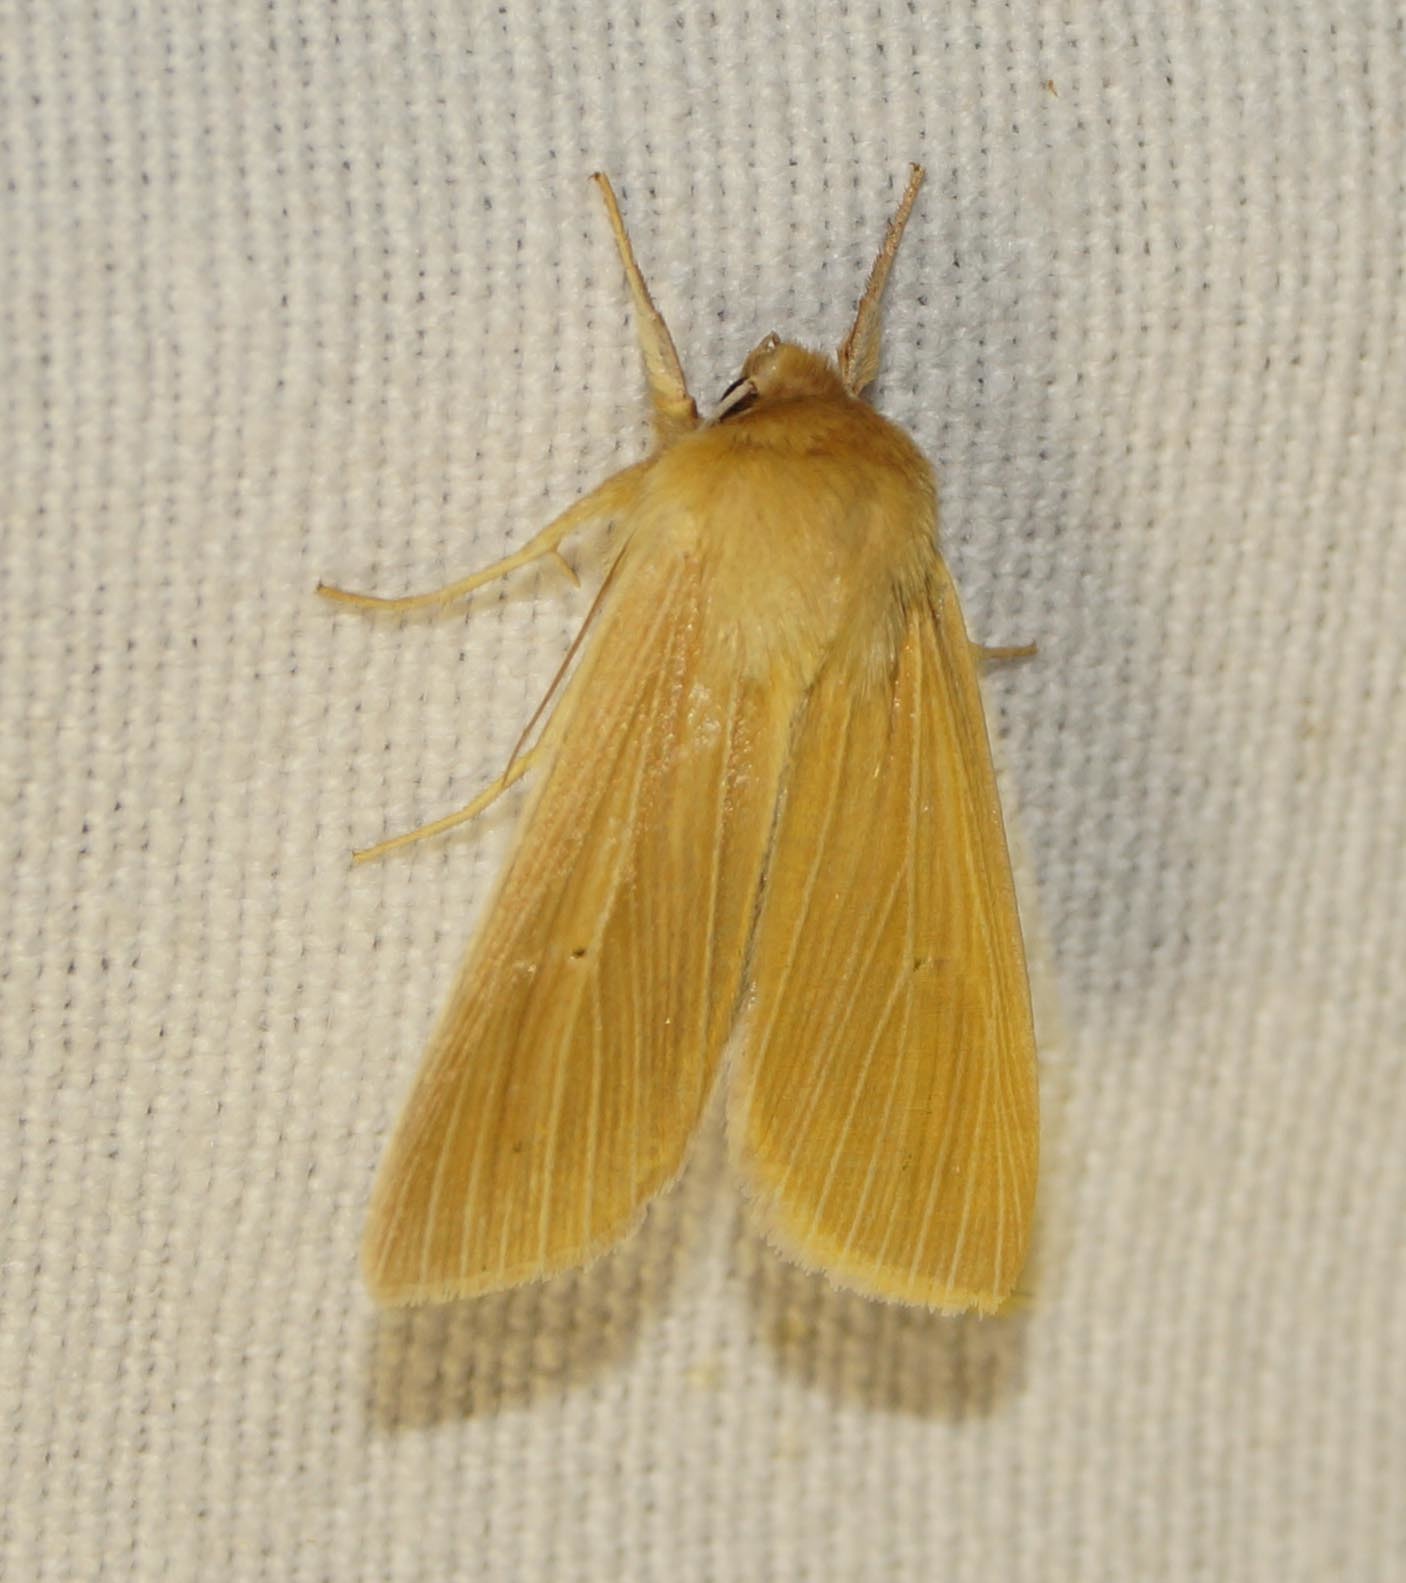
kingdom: Animalia
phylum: Arthropoda
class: Insecta
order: Lepidoptera
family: Noctuidae
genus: Mythimna
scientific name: Mythimna pallens
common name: Common wainscot
